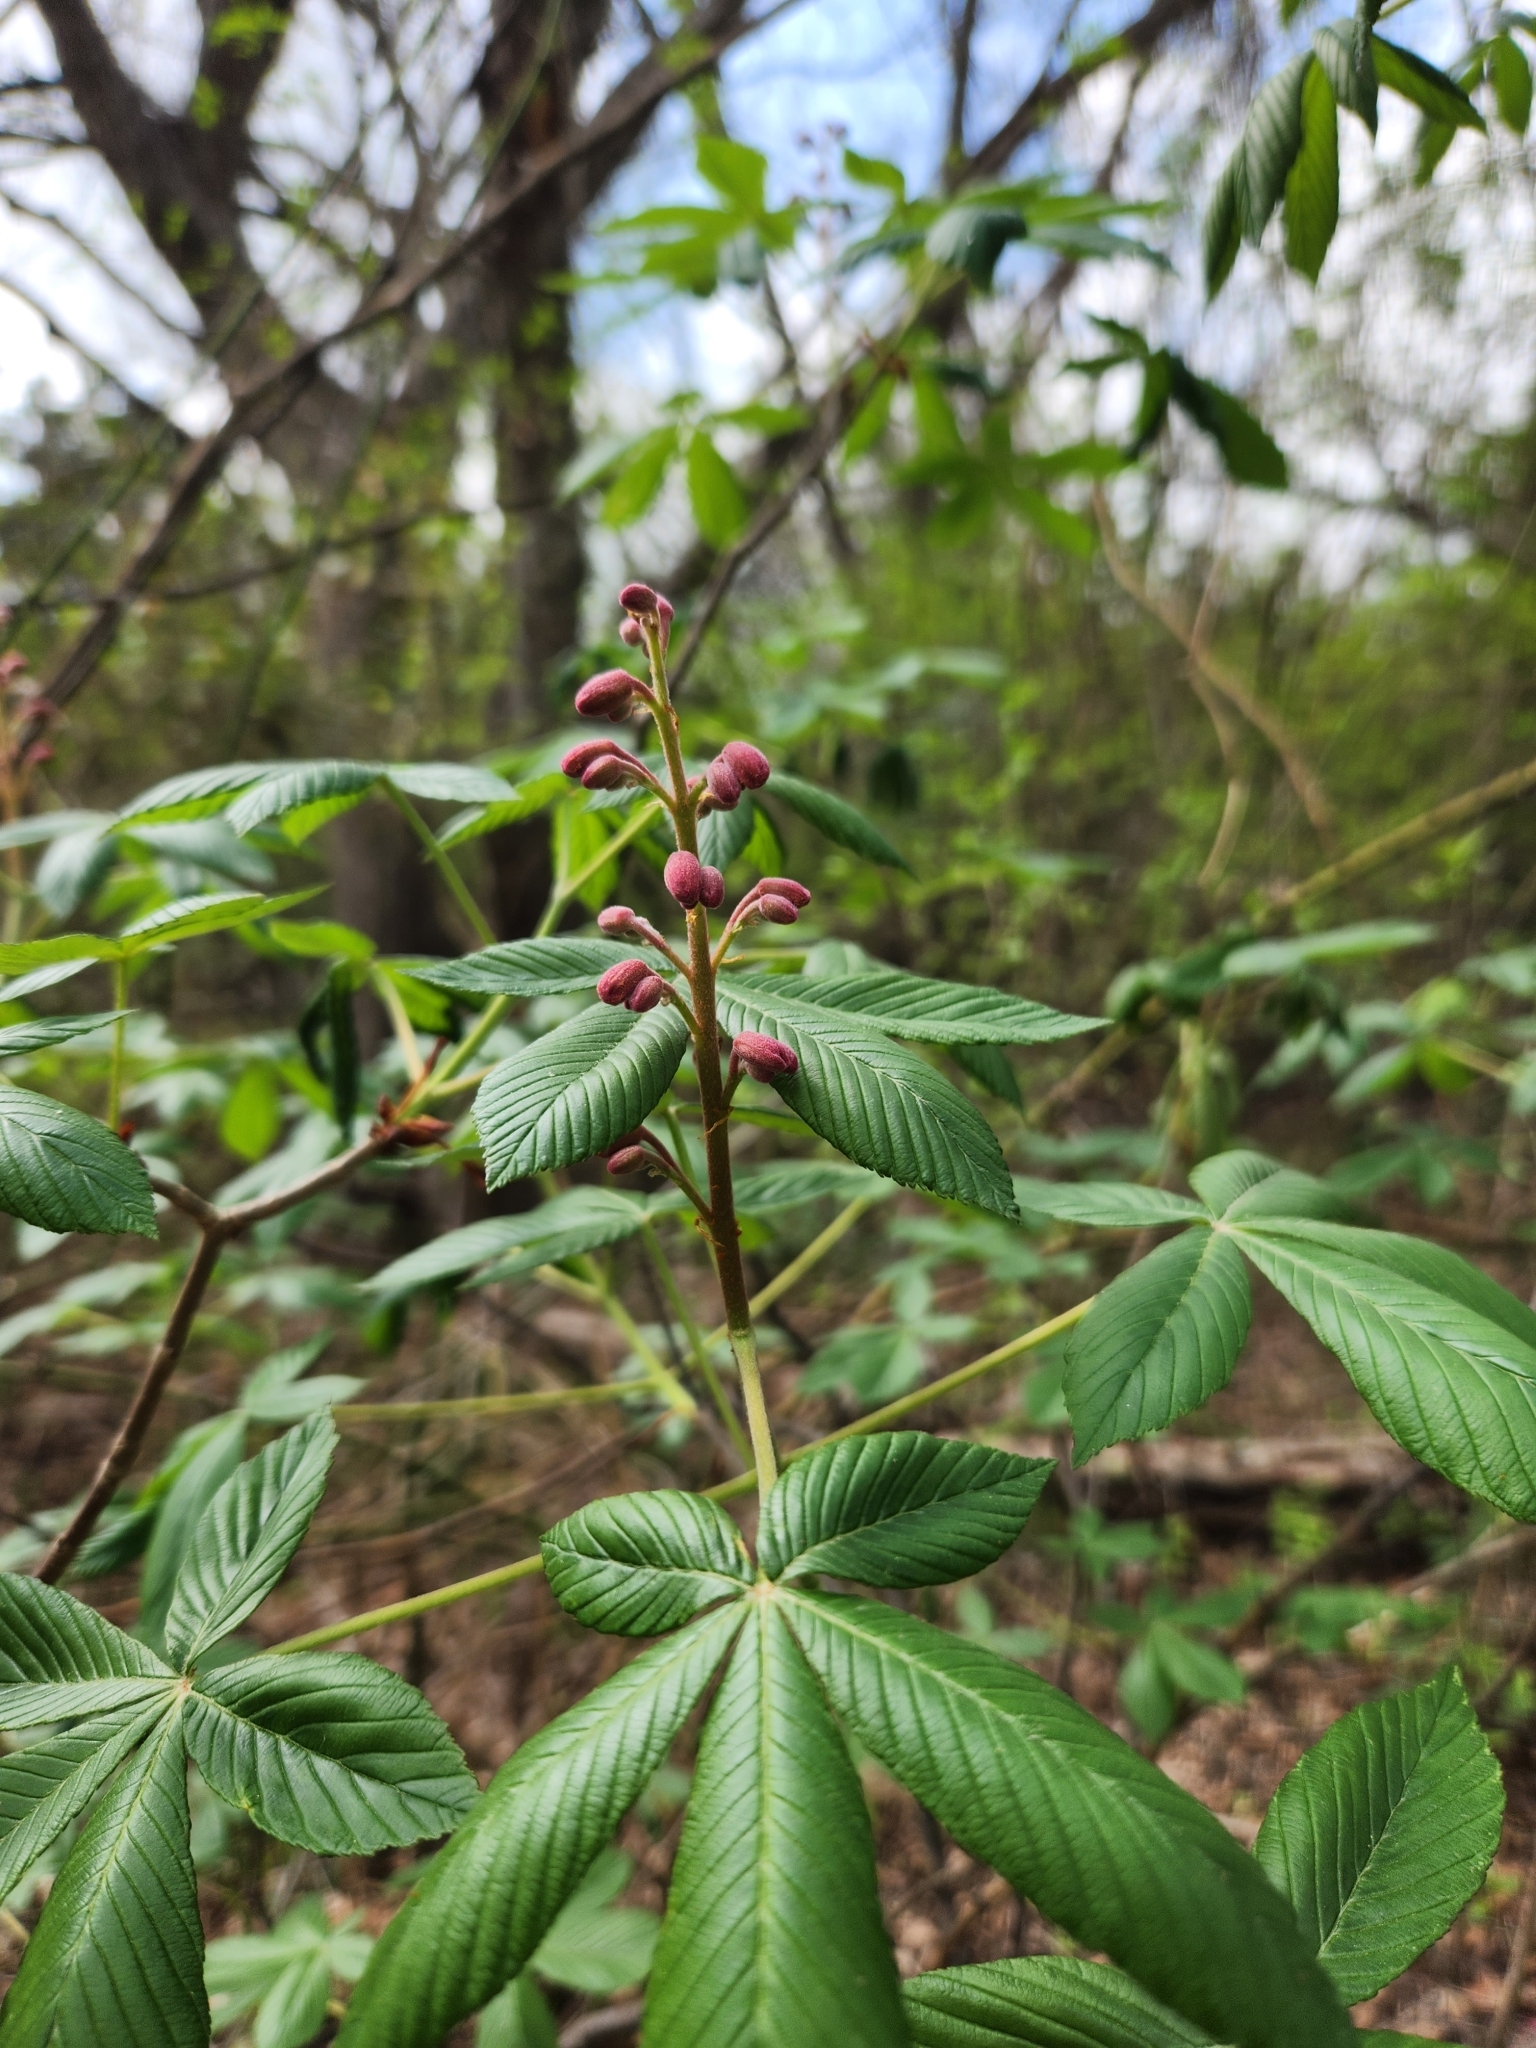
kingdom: Plantae
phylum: Tracheophyta
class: Magnoliopsida
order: Sapindales
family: Sapindaceae
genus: Aesculus
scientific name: Aesculus pavia
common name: Red buckeye
